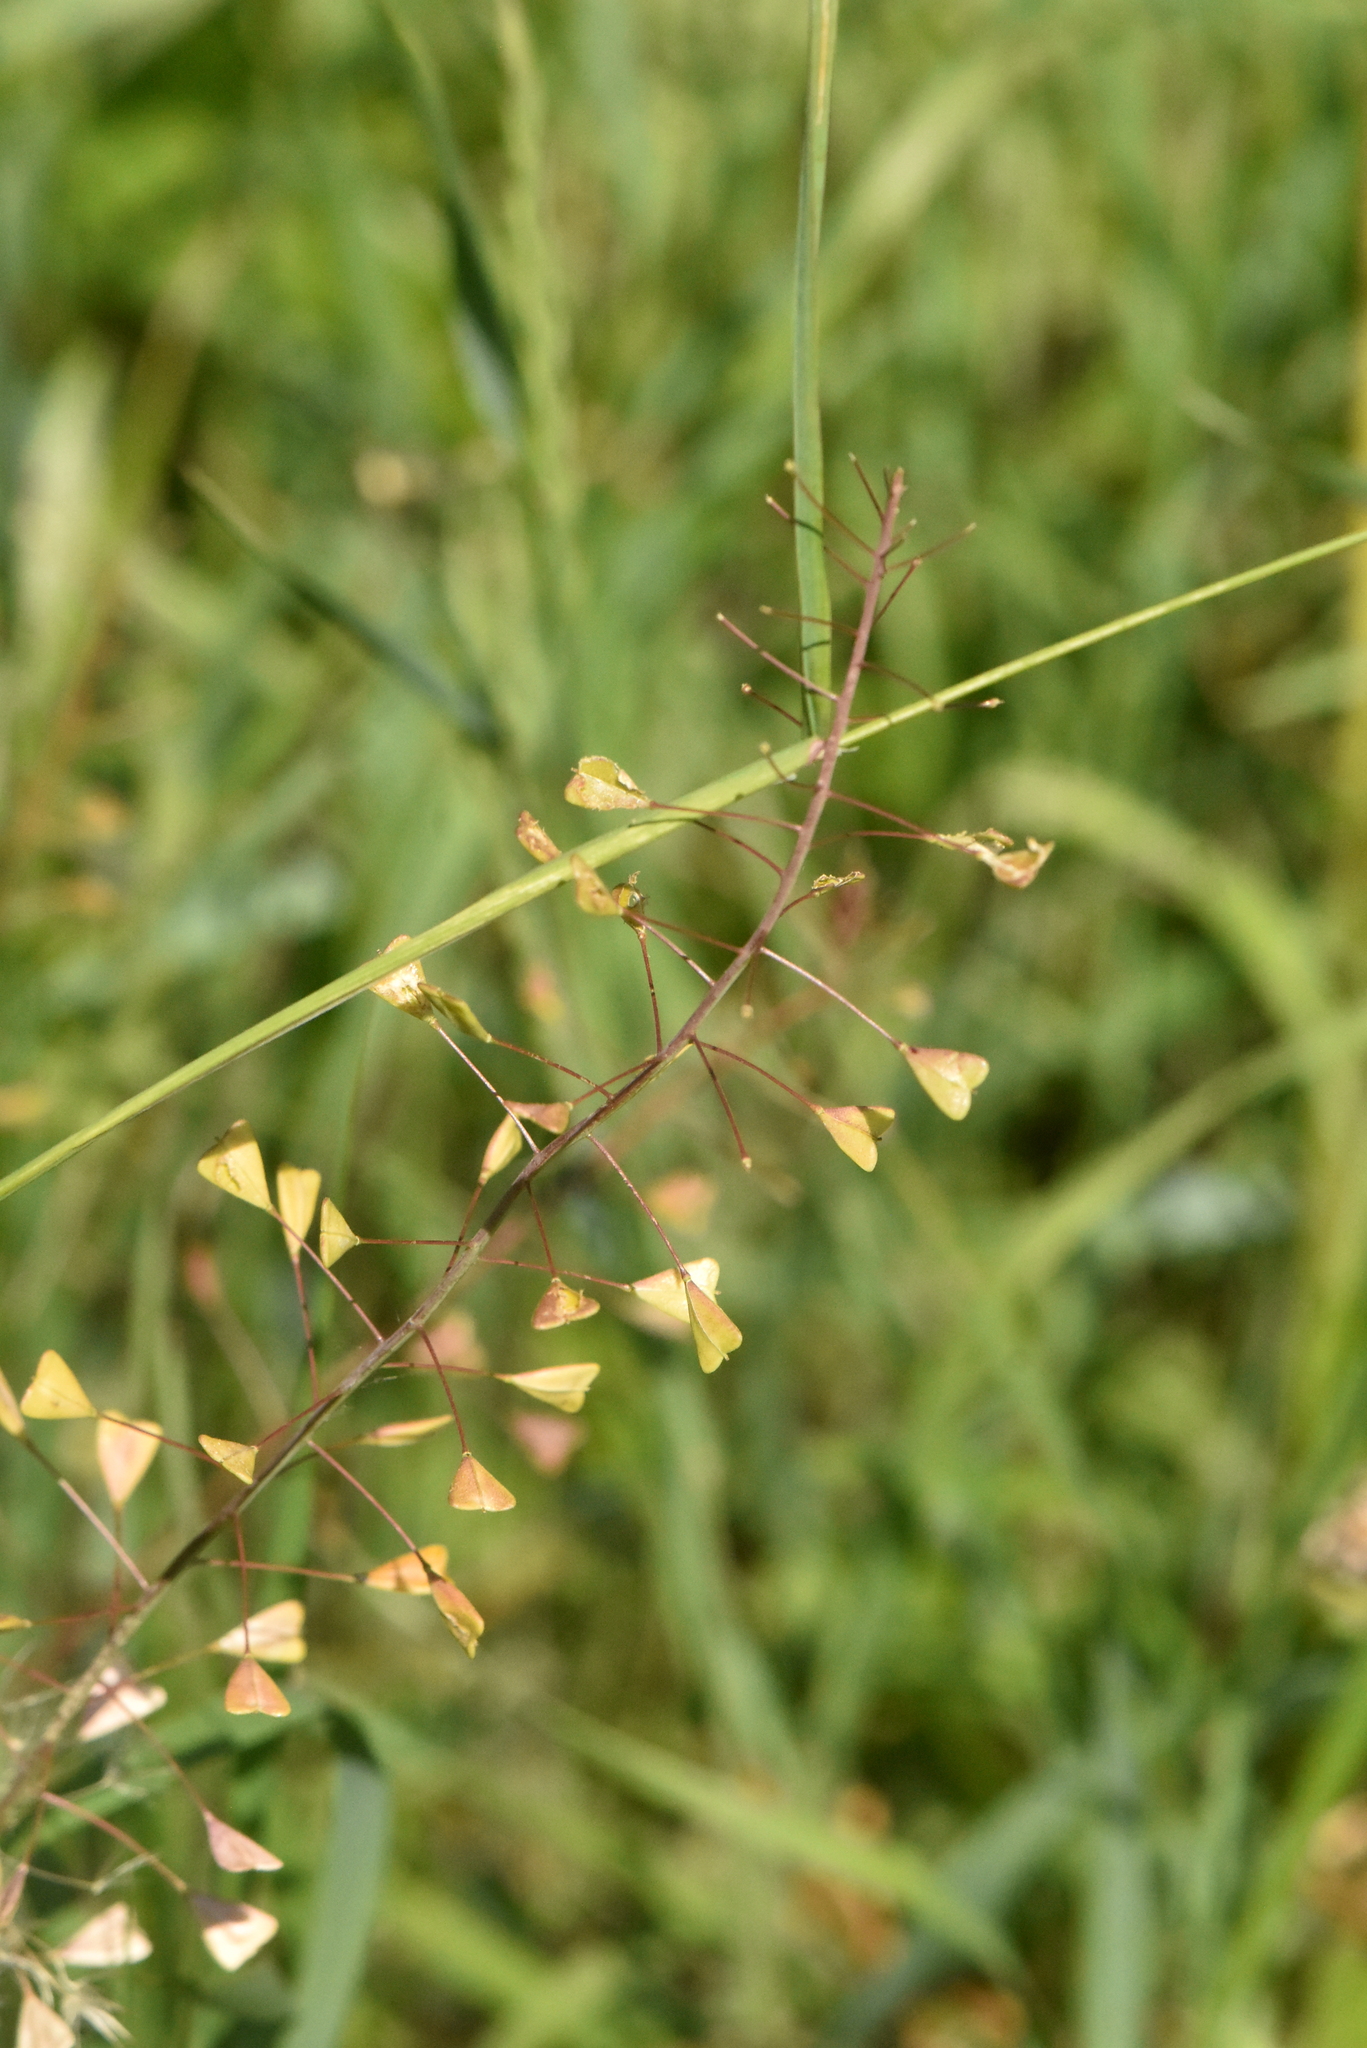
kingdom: Plantae
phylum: Tracheophyta
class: Magnoliopsida
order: Brassicales
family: Brassicaceae
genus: Capsella
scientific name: Capsella bursa-pastoris
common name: Shepherd's purse
